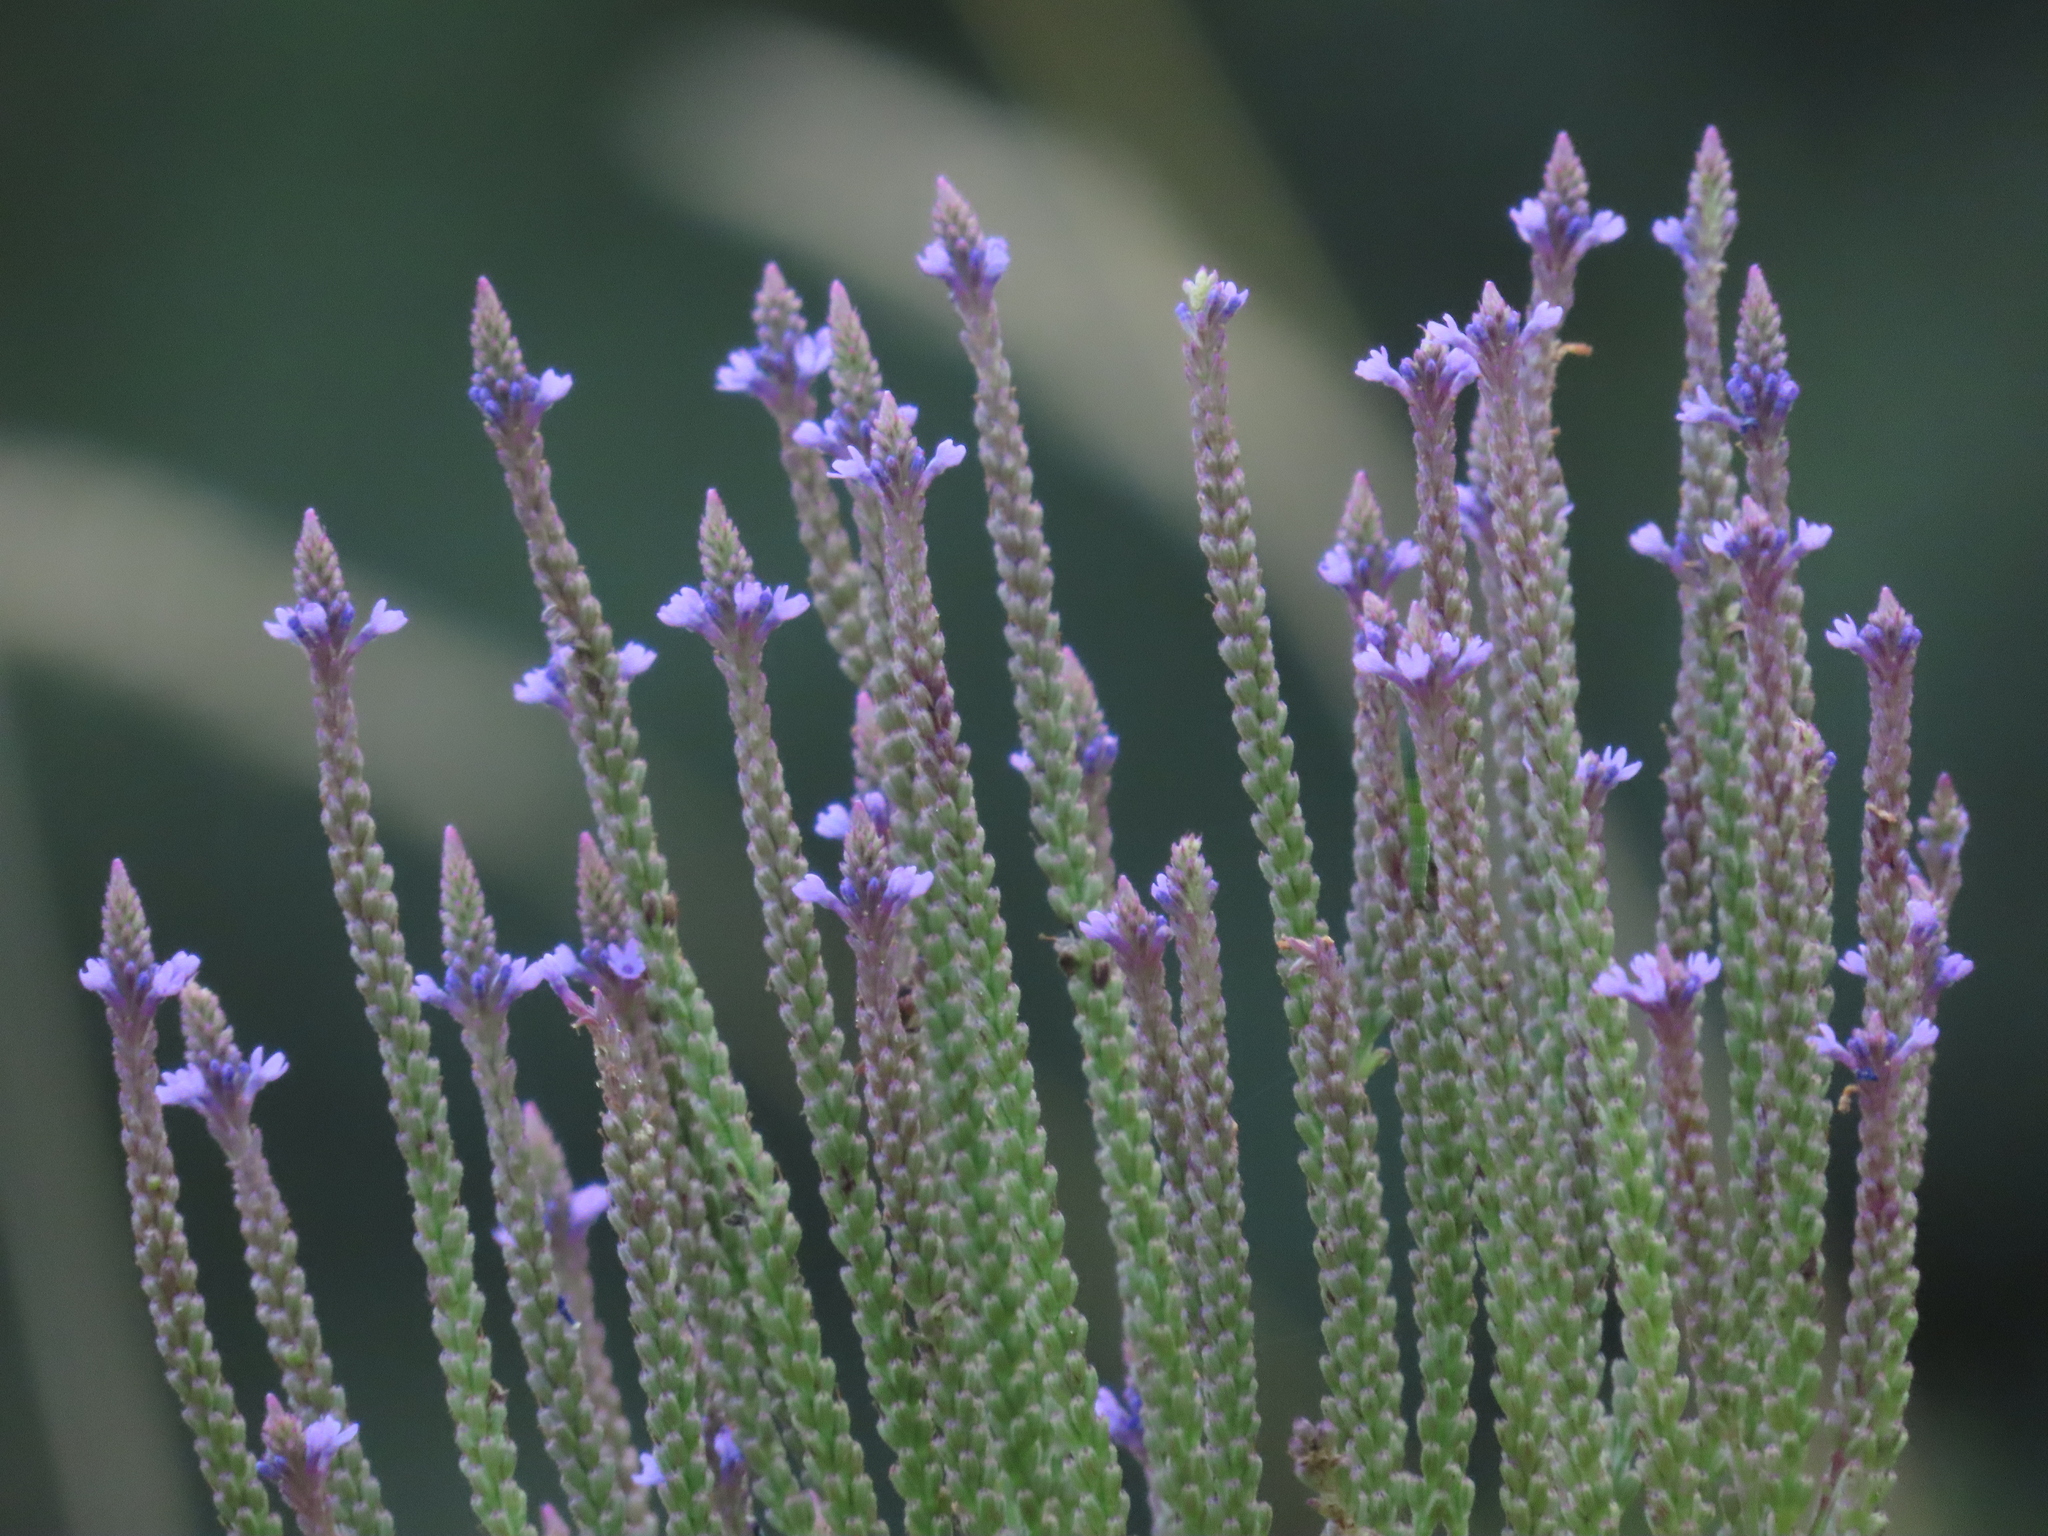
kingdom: Plantae
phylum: Tracheophyta
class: Magnoliopsida
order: Lamiales
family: Verbenaceae
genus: Verbena
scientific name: Verbena hastata
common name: American blue vervain
